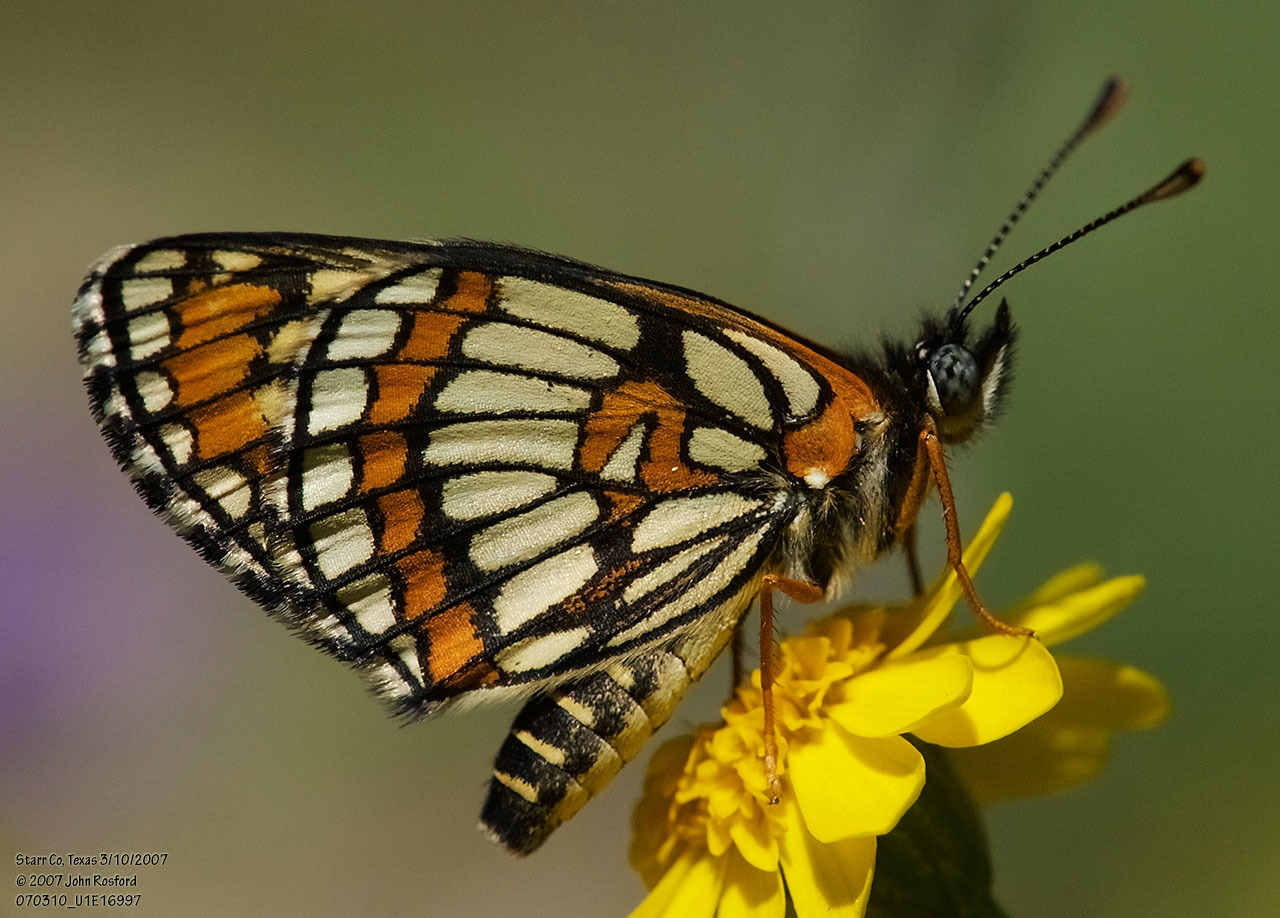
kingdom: Animalia
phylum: Arthropoda
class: Insecta
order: Lepidoptera
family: Nymphalidae
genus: Thessalia
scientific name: Thessalia theona
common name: Nymphalid moth
